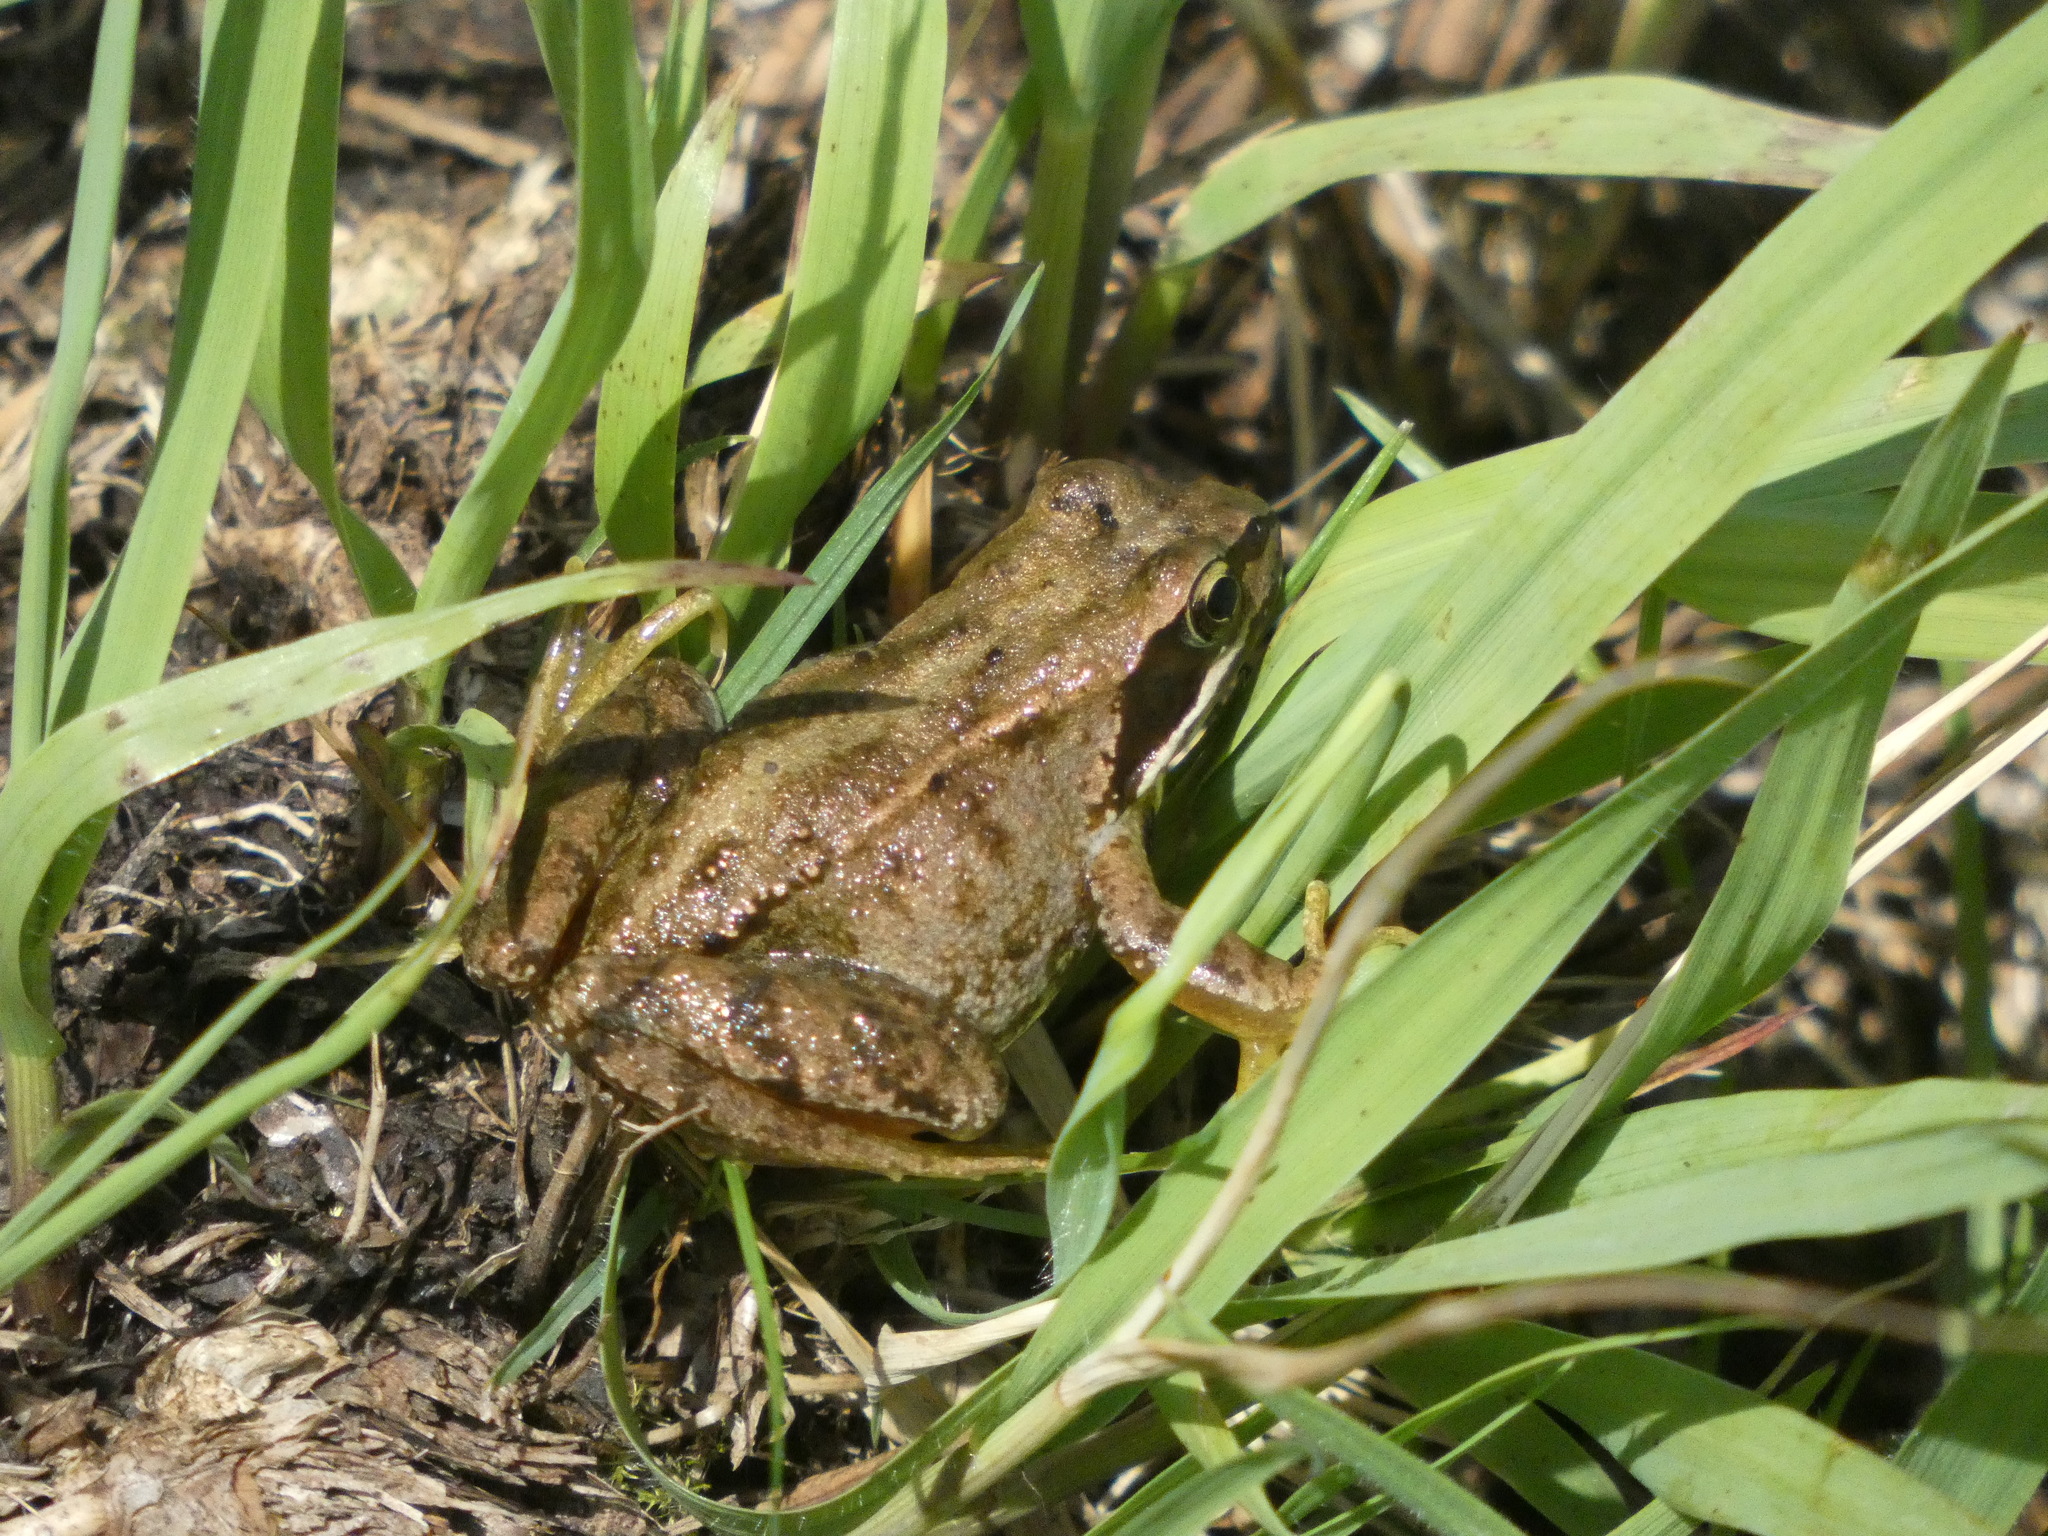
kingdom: Animalia
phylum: Chordata
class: Amphibia
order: Anura
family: Ranidae
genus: Rana
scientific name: Rana temporaria
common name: Common frog
